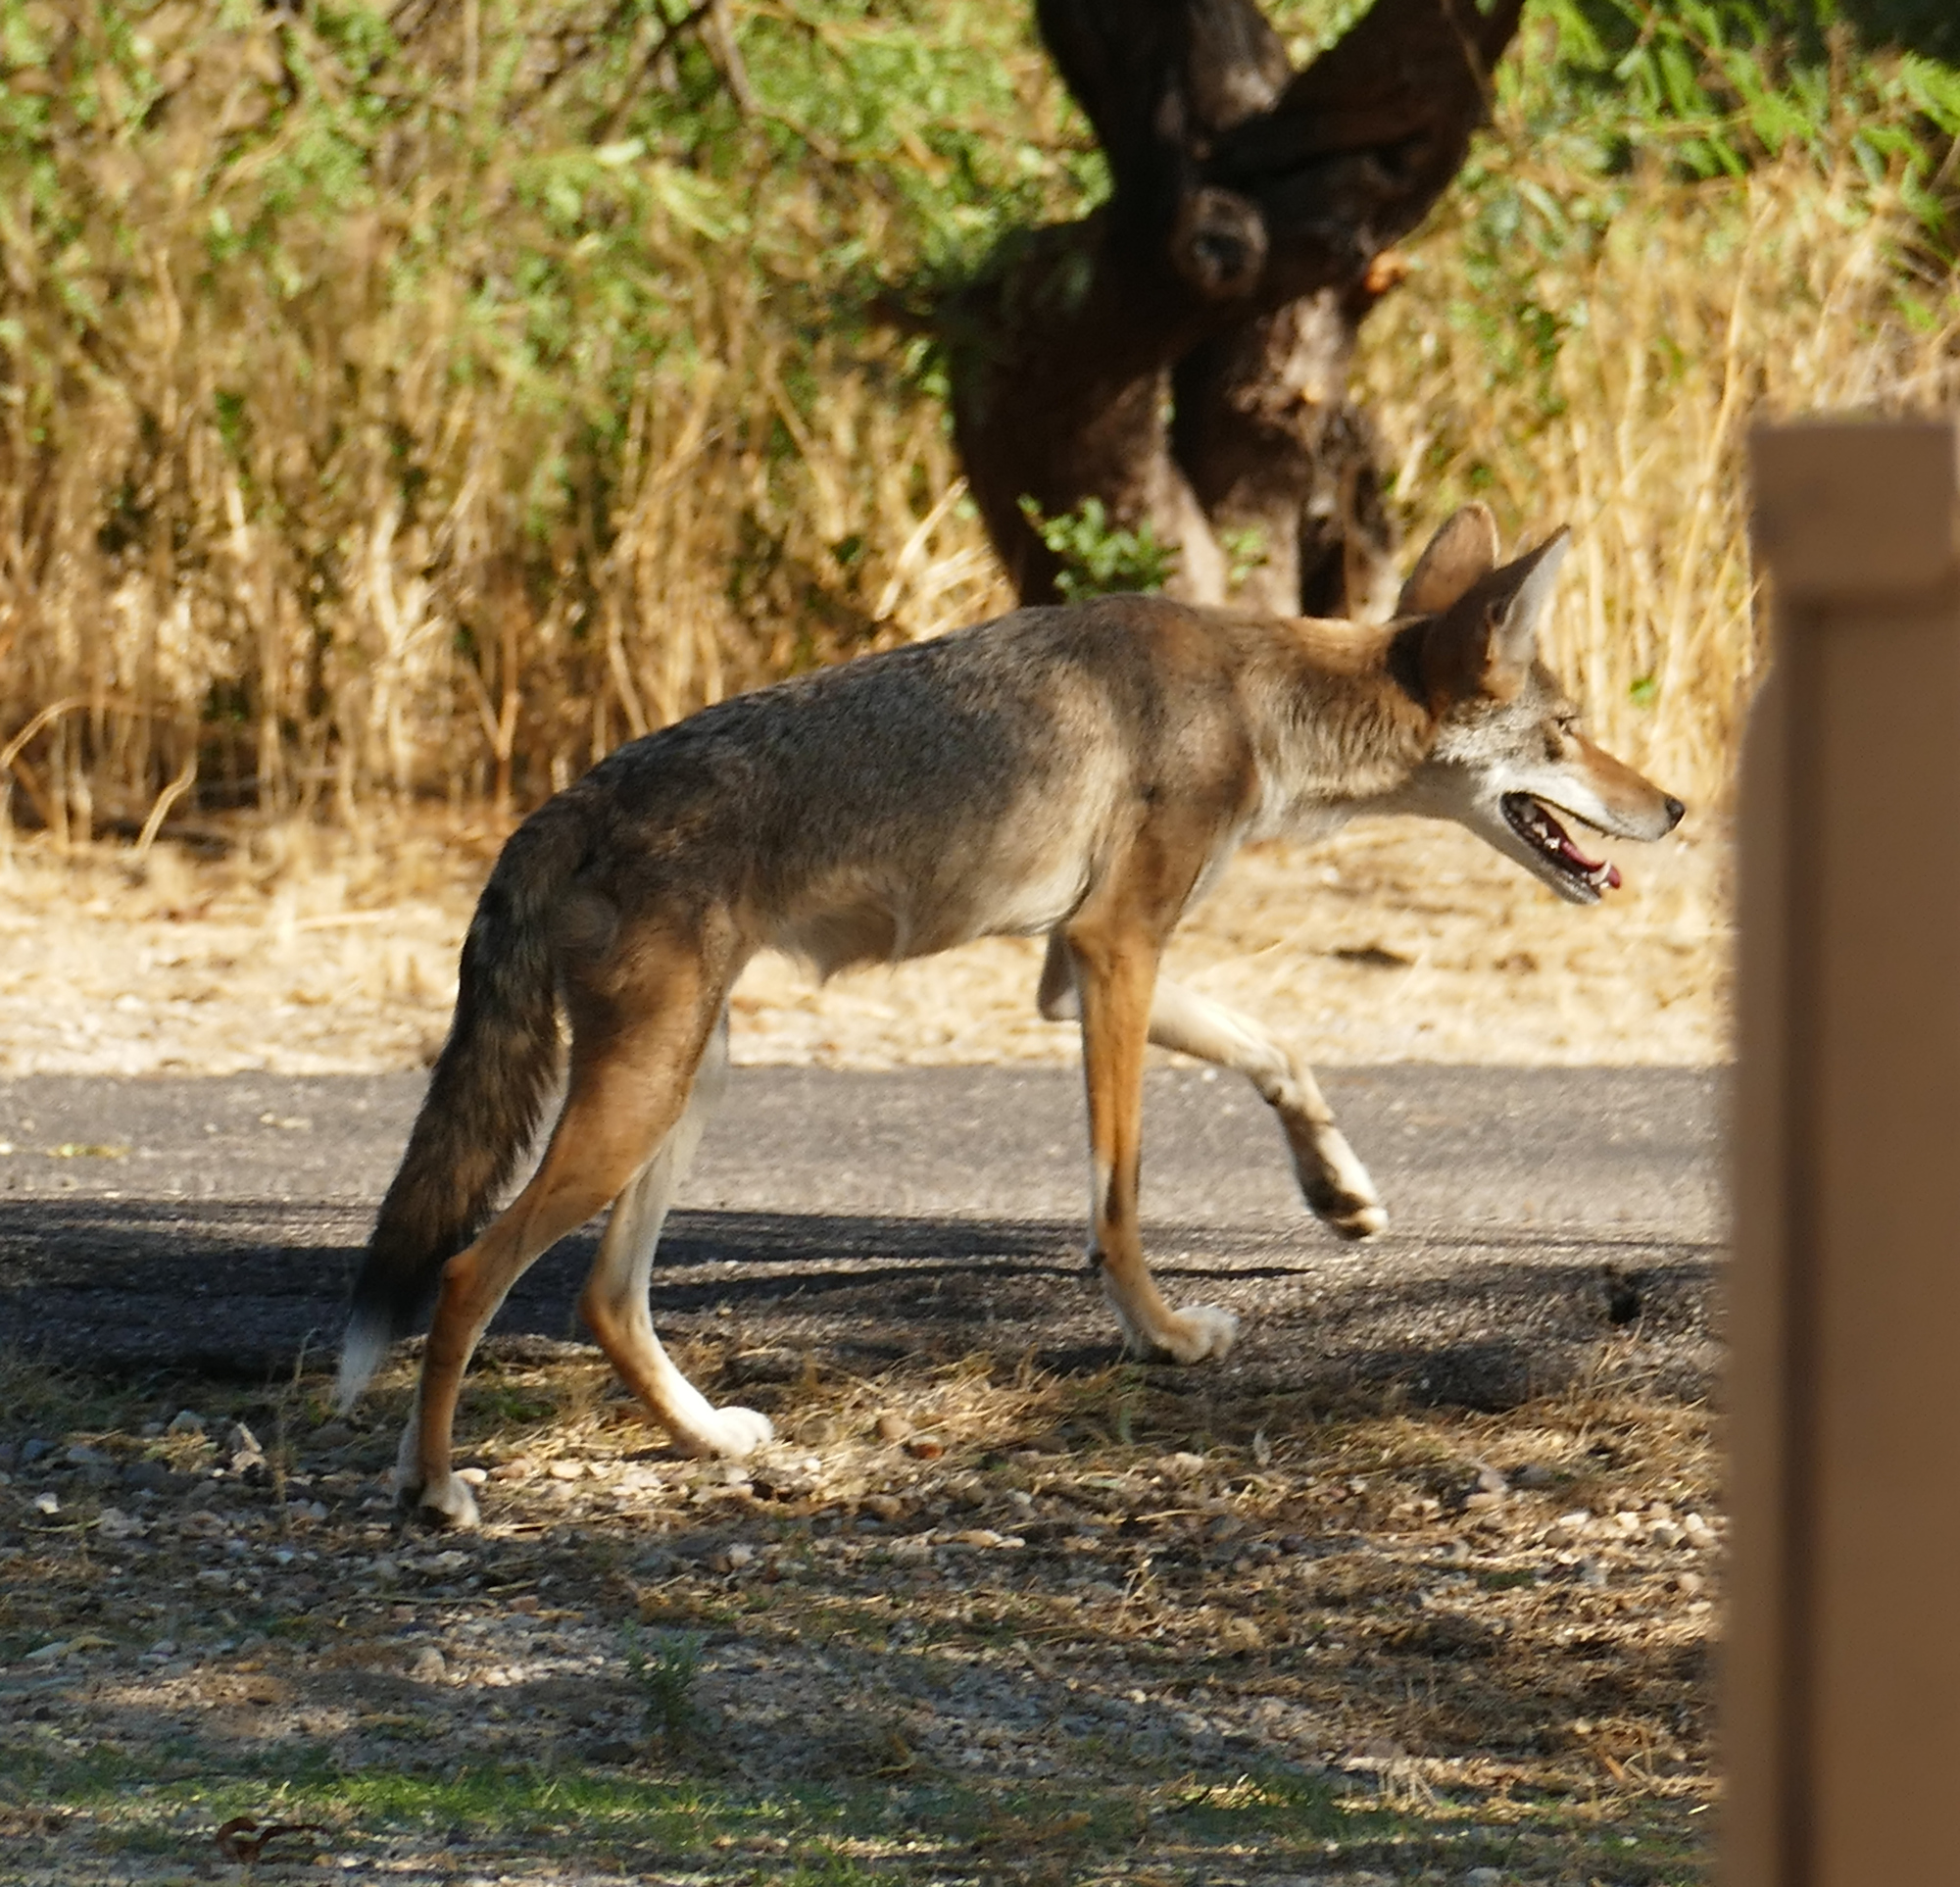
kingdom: Animalia
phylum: Chordata
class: Mammalia
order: Carnivora
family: Canidae
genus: Canis
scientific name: Canis latrans
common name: Coyote
